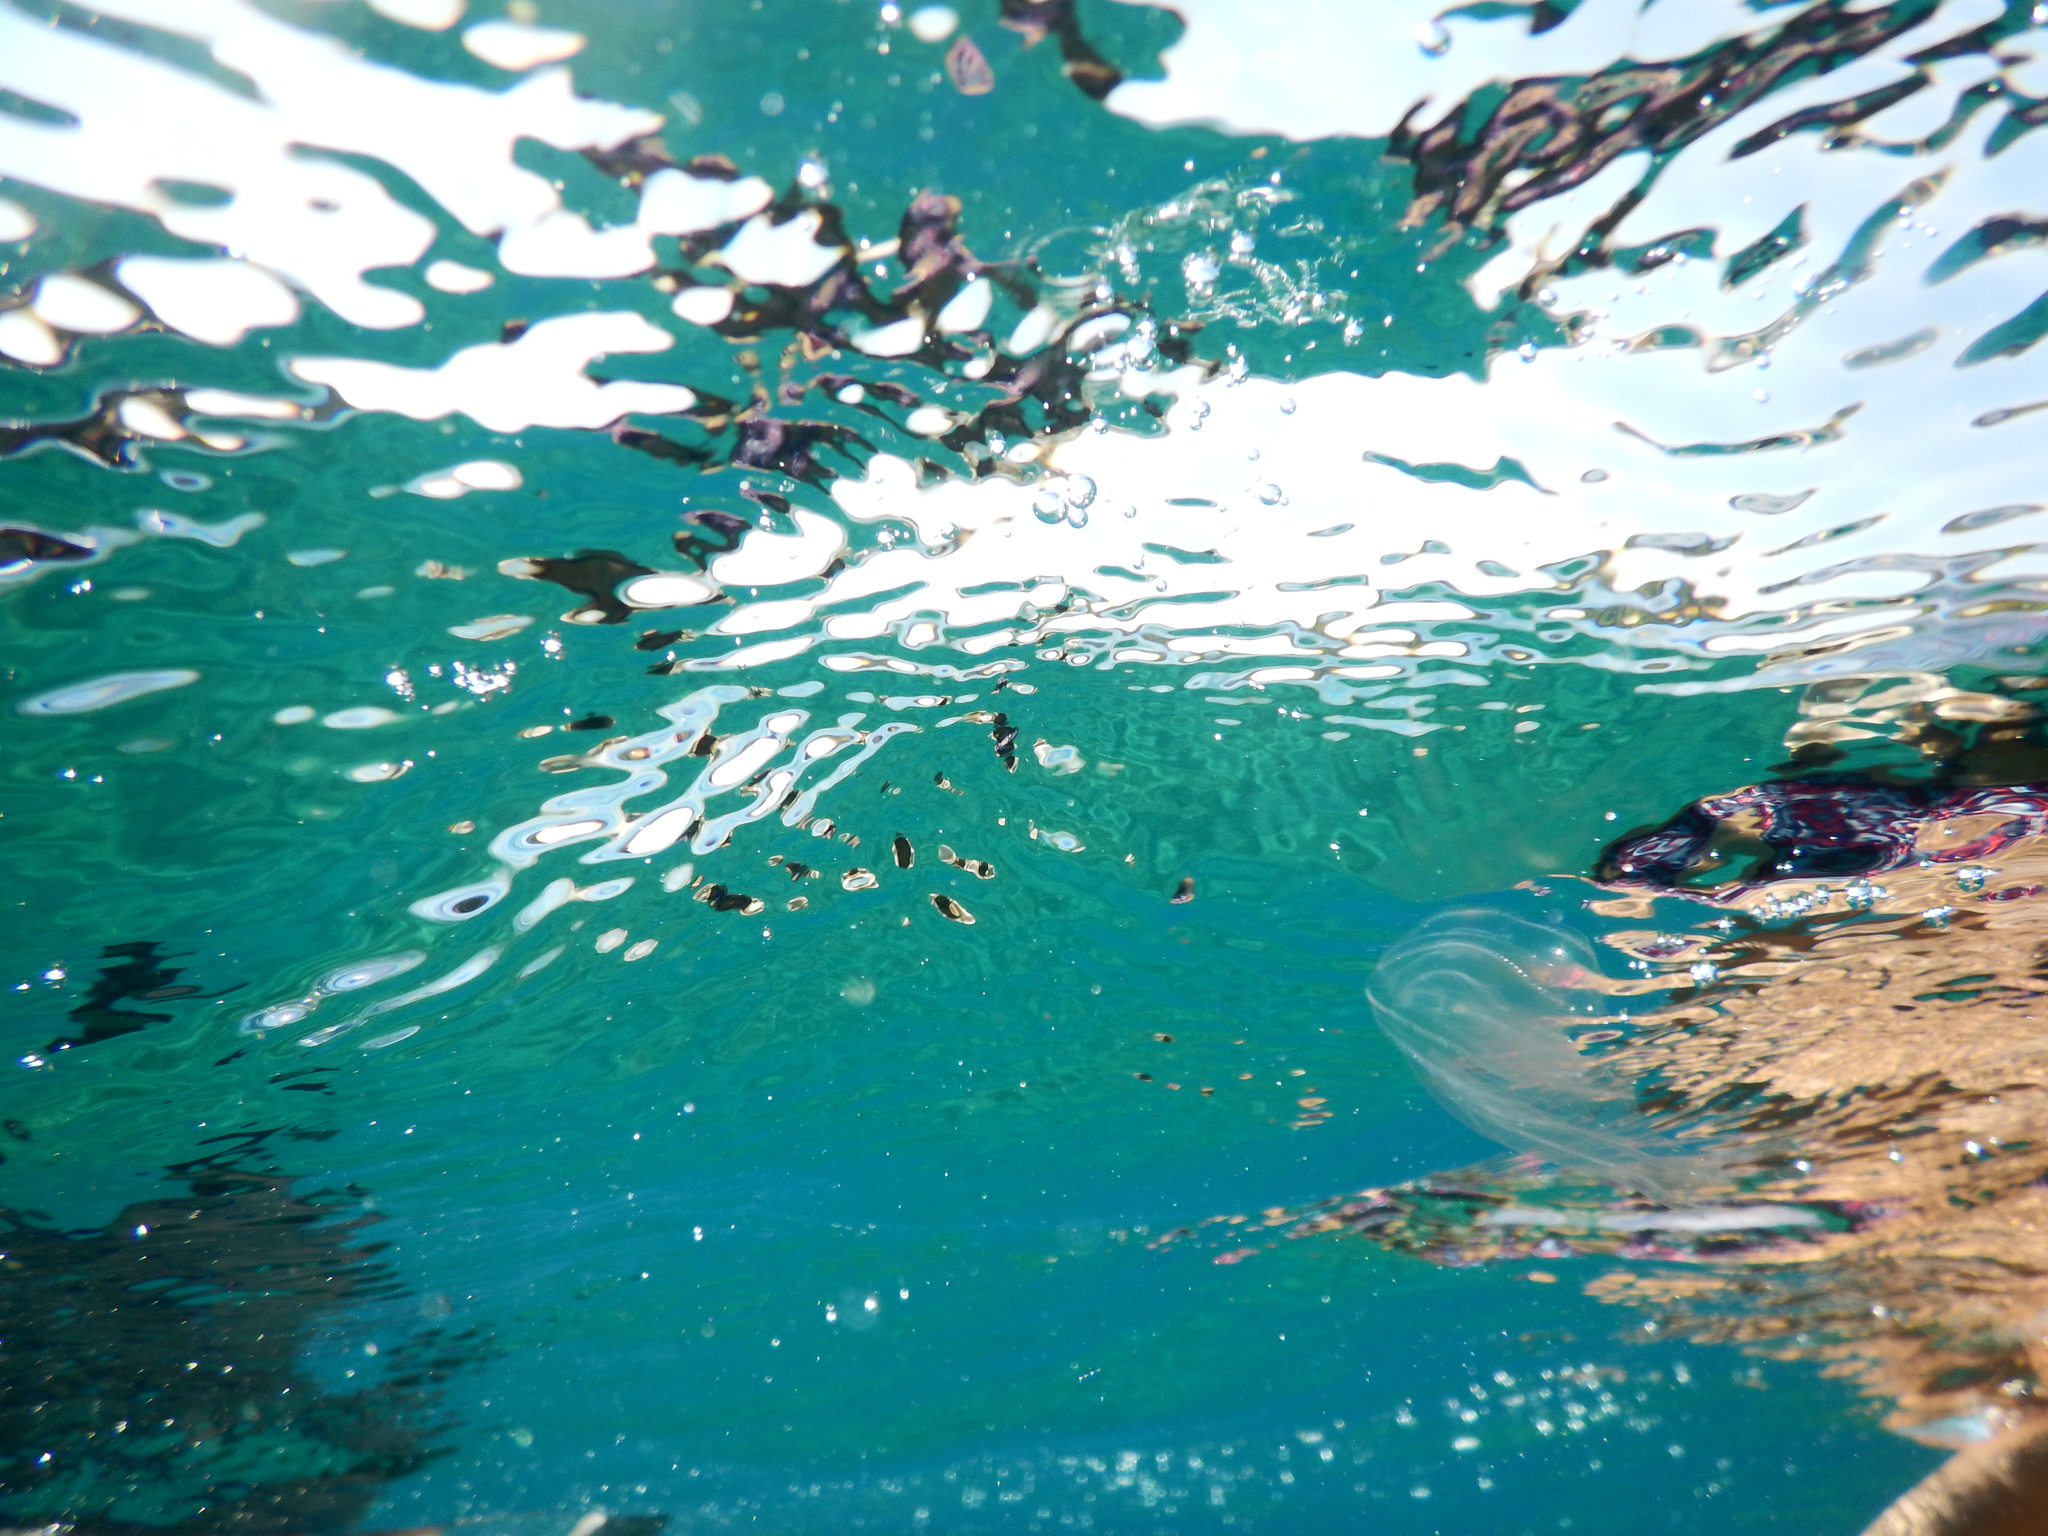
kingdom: Animalia
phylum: Ctenophora
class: Tentaculata
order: Lobata
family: Bolinopsidae
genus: Mnemiopsis
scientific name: Mnemiopsis leidyi
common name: American comb jelly
